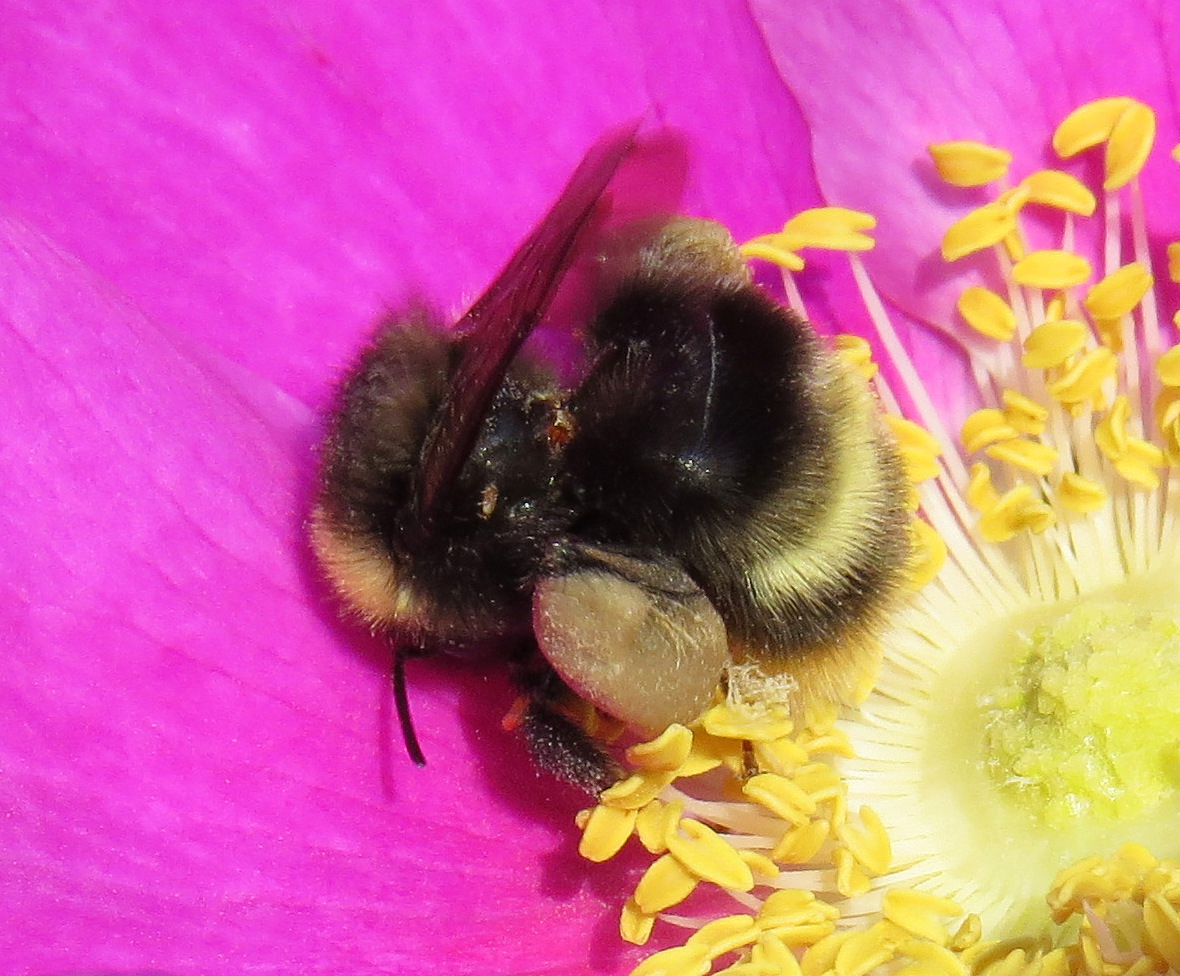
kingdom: Animalia
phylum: Arthropoda
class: Insecta
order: Hymenoptera
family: Apidae
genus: Bombus
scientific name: Bombus mckayi
